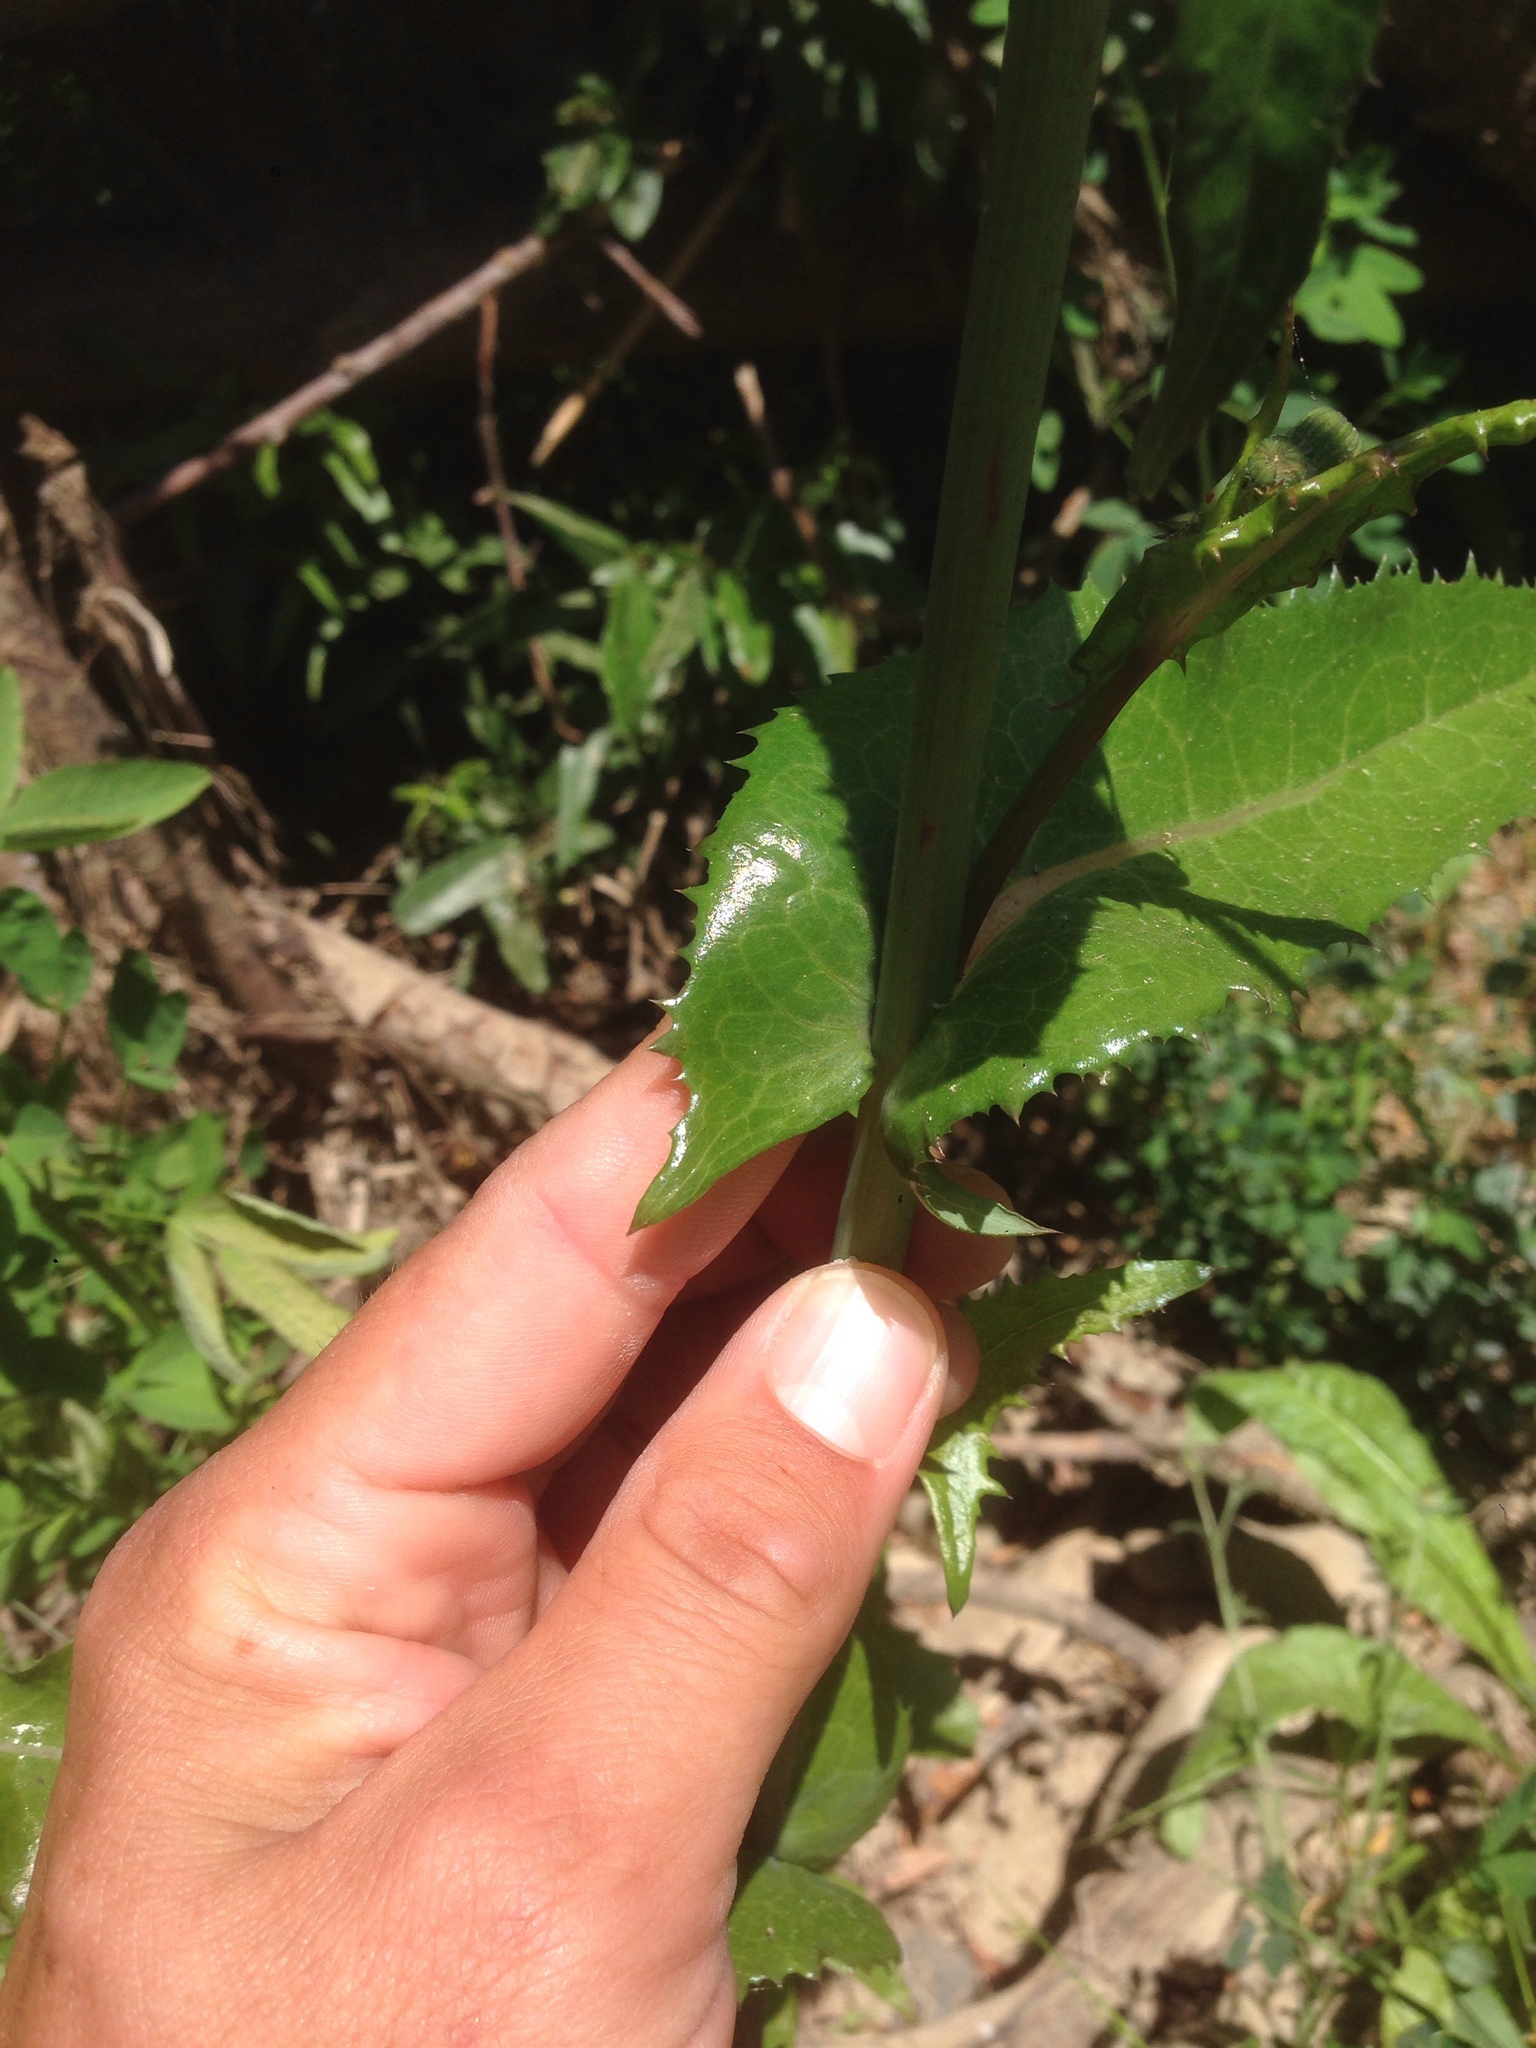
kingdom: Plantae
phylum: Tracheophyta
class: Magnoliopsida
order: Asterales
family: Asteraceae
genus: Sonchus
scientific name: Sonchus oleraceus
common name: Common sowthistle
